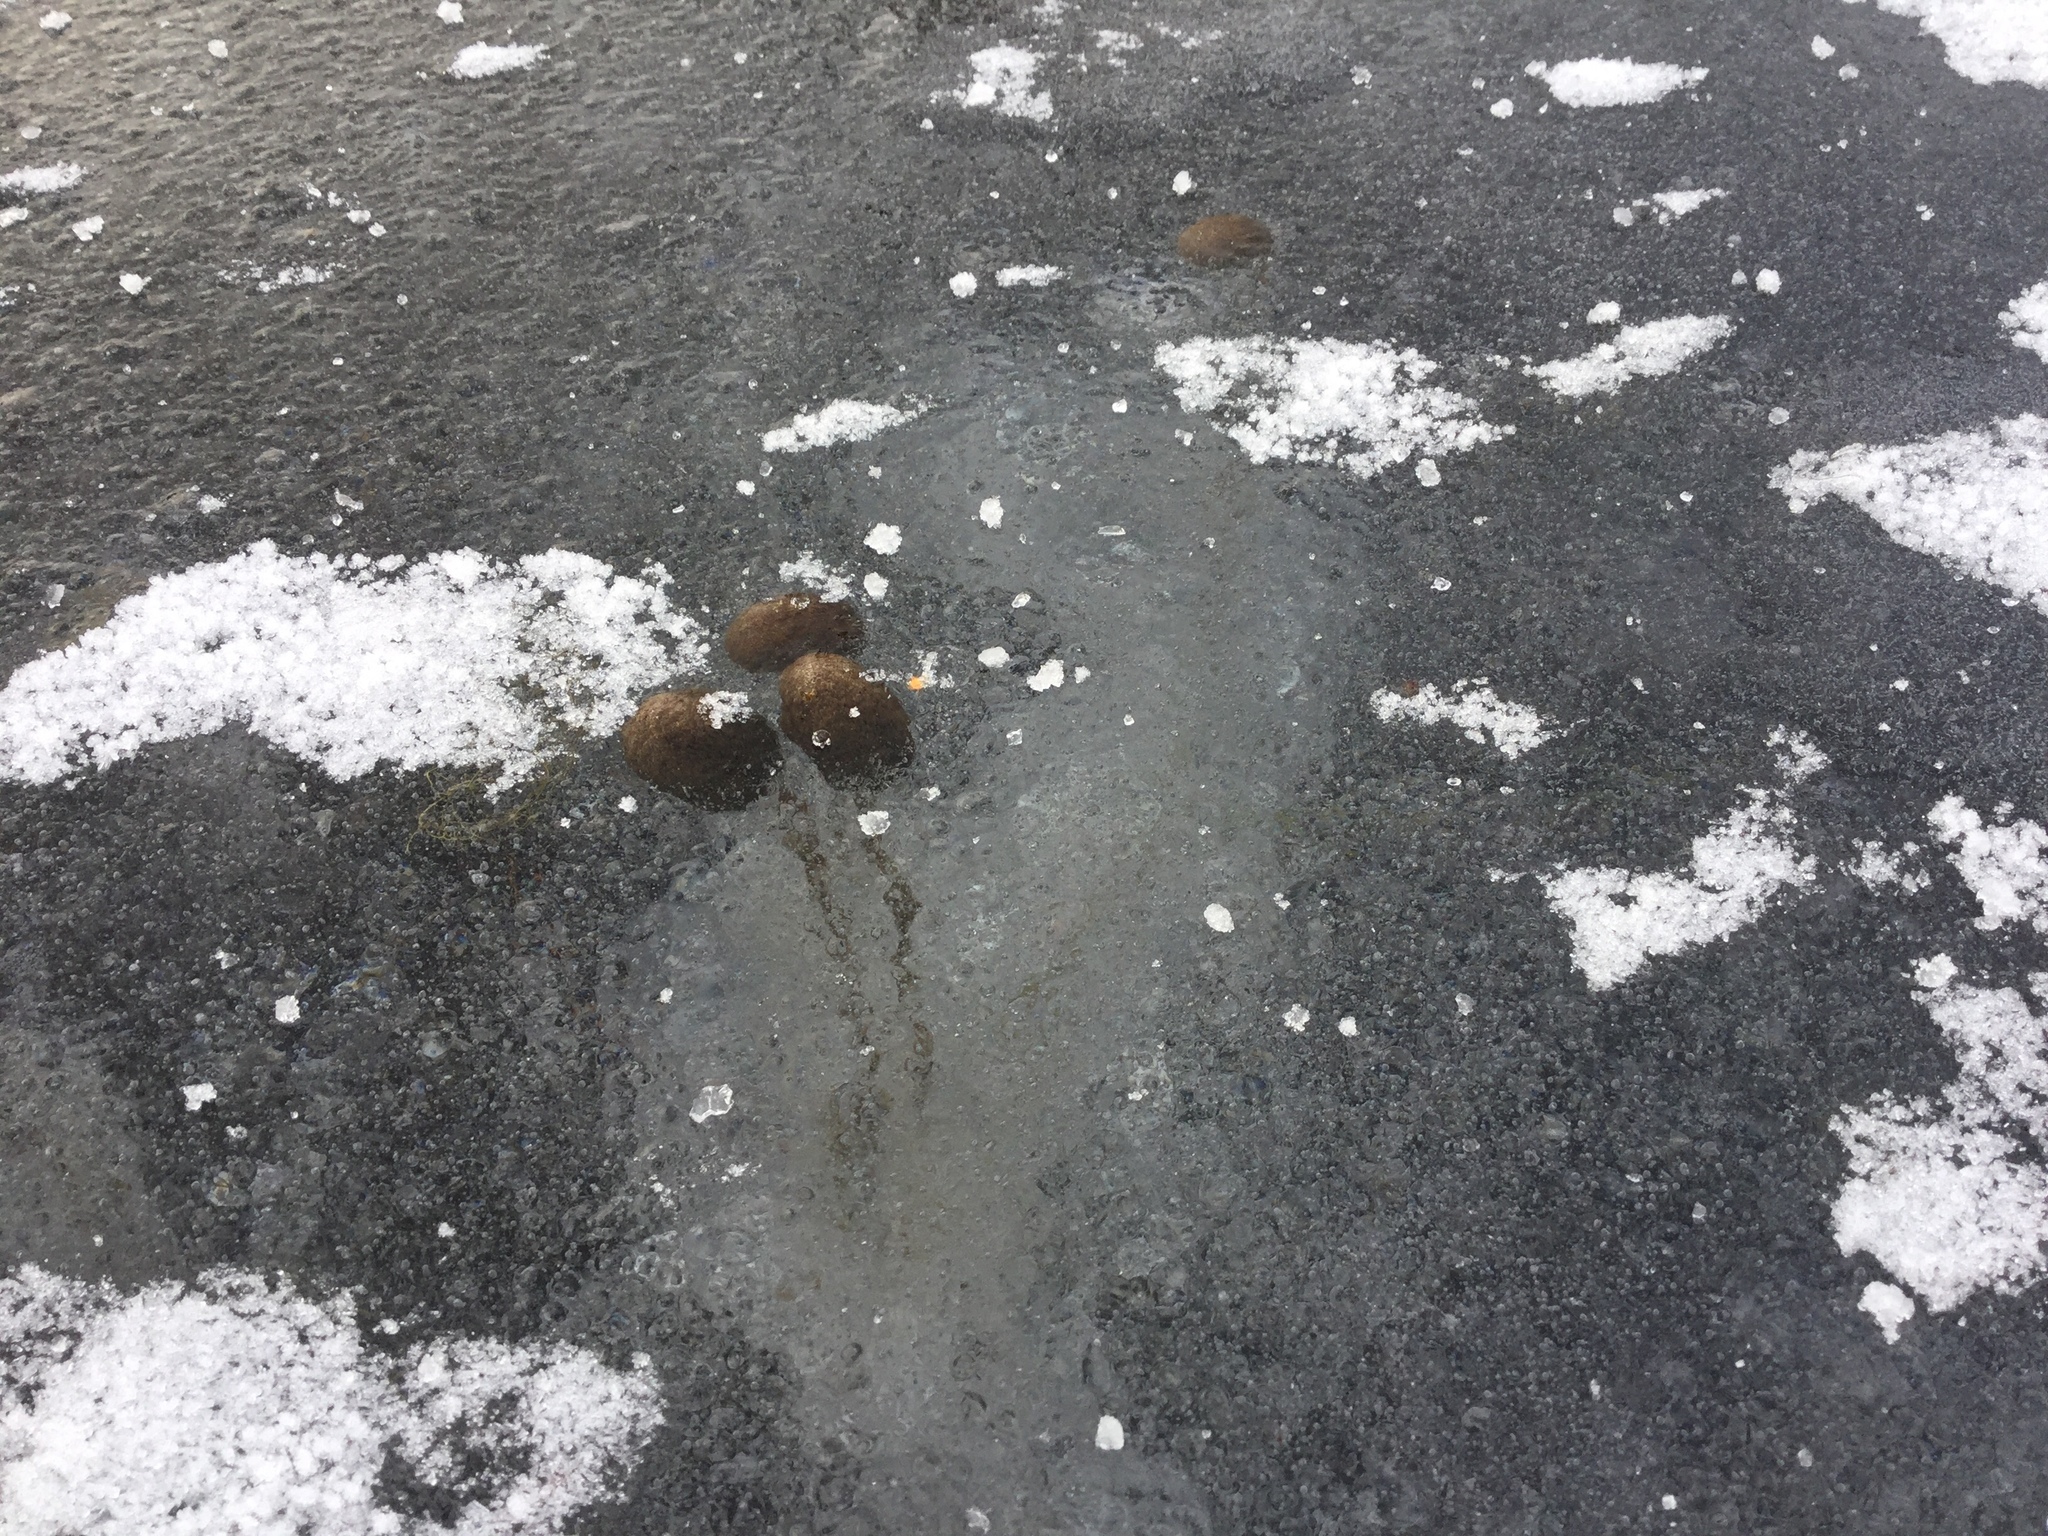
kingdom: Plantae
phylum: Tracheophyta
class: Magnoliopsida
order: Lamiales
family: Lentibulariaceae
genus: Utricularia
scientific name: Utricularia macrorhiza
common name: Common bladderwort
